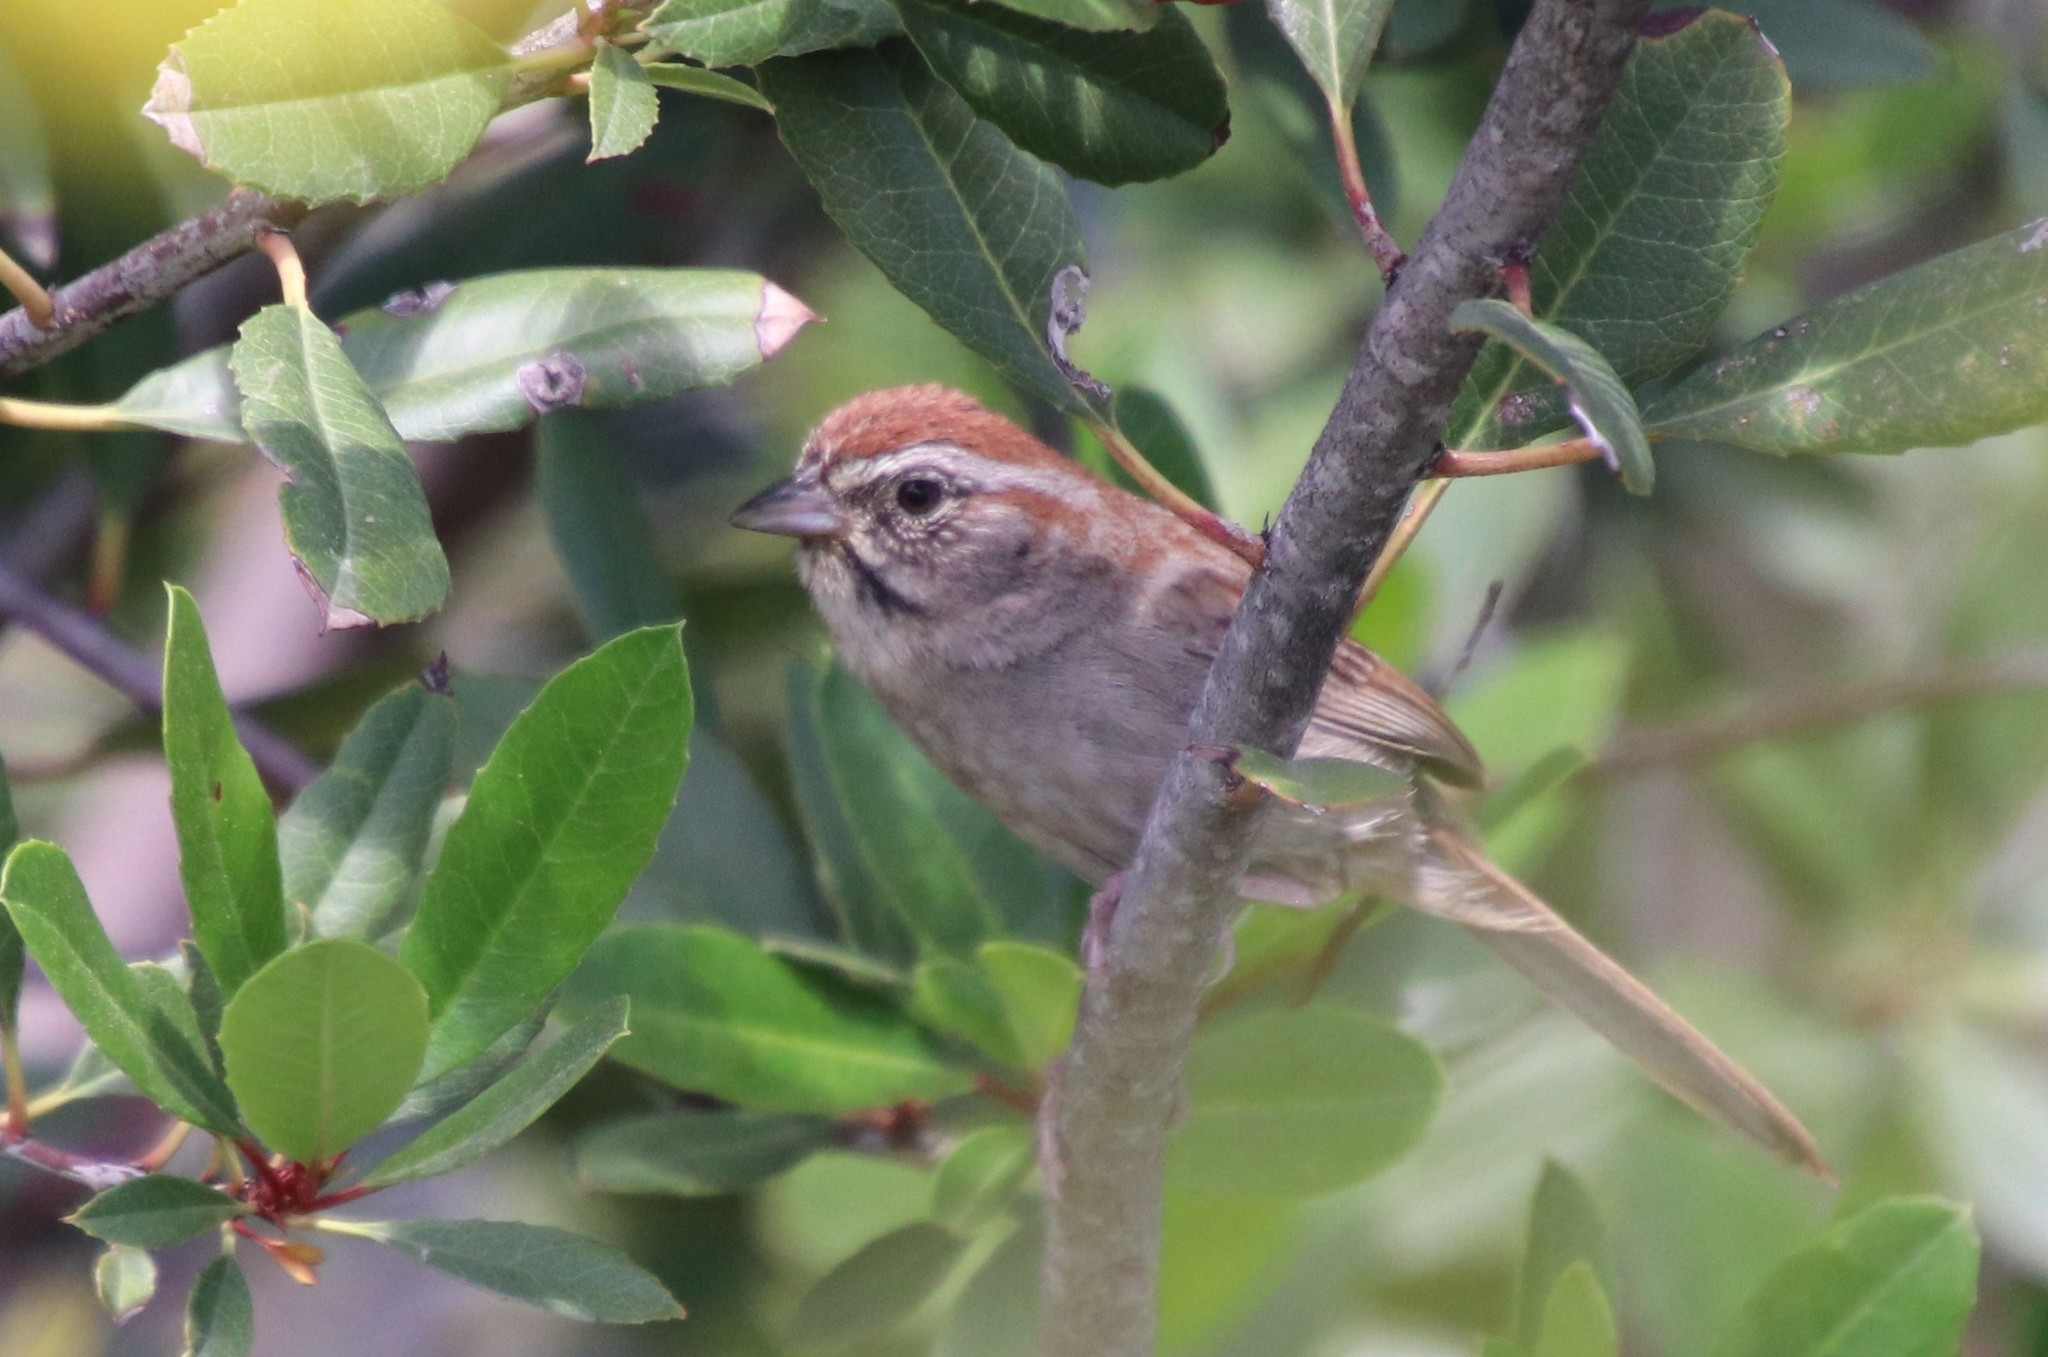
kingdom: Animalia
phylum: Chordata
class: Aves
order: Passeriformes
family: Passerellidae
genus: Aimophila
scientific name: Aimophila ruficeps
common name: Rufous-crowned sparrow
